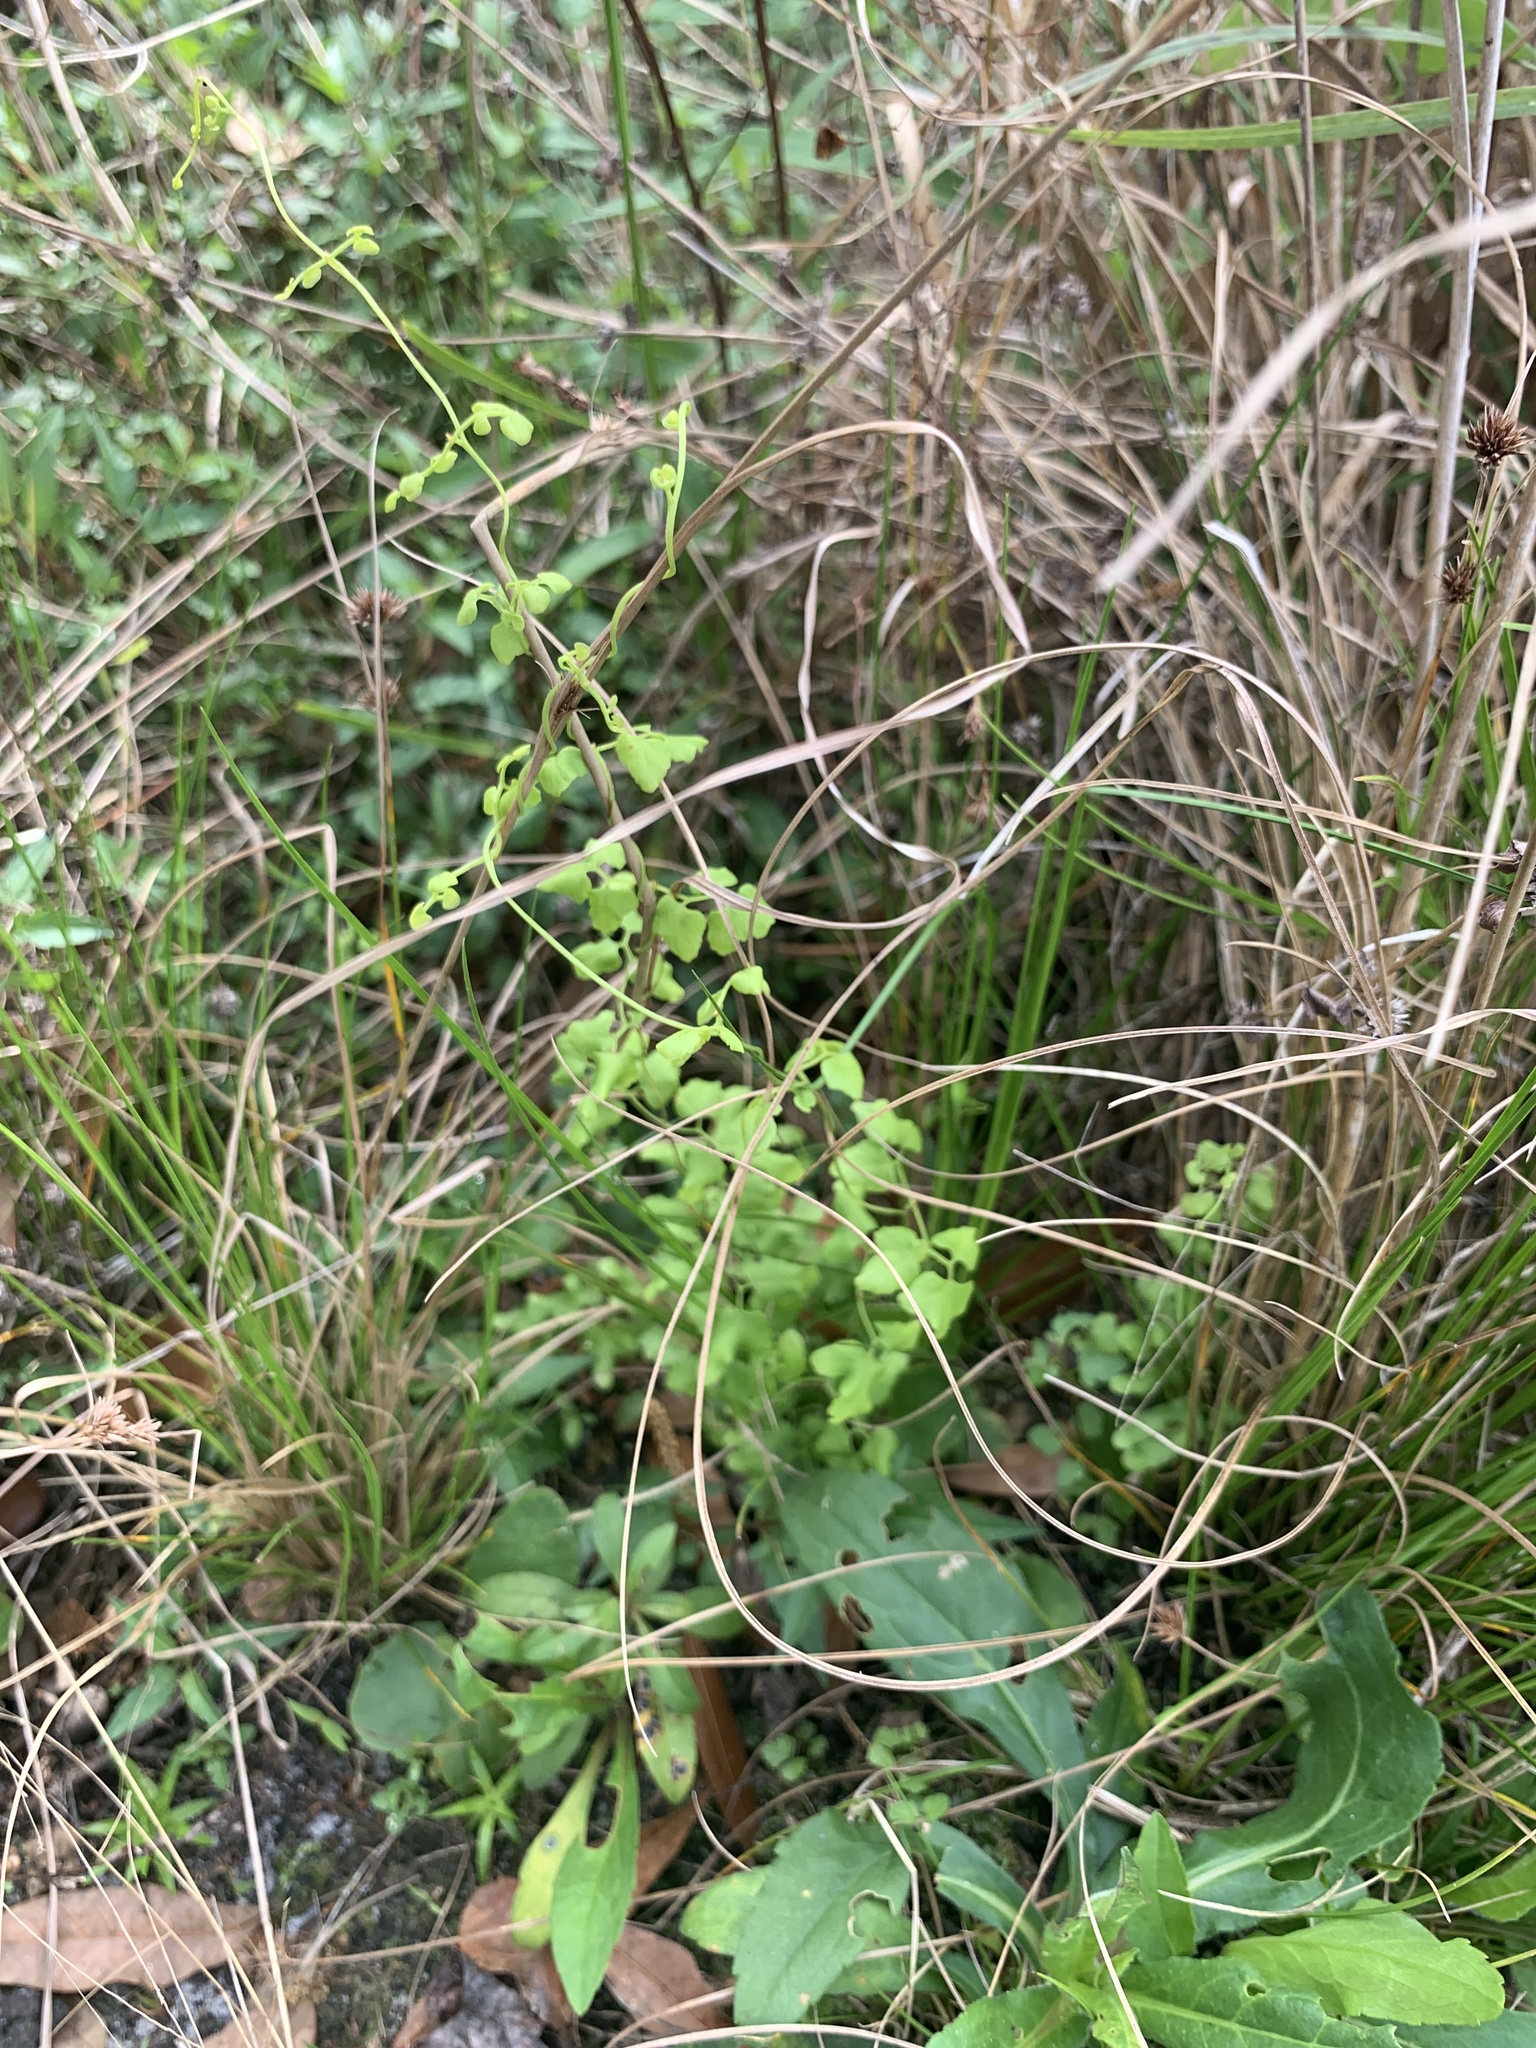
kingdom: Plantae
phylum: Tracheophyta
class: Polypodiopsida
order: Schizaeales
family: Lygodiaceae
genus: Lygodium
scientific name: Lygodium microphyllum
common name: Small-leaf climbing fern
